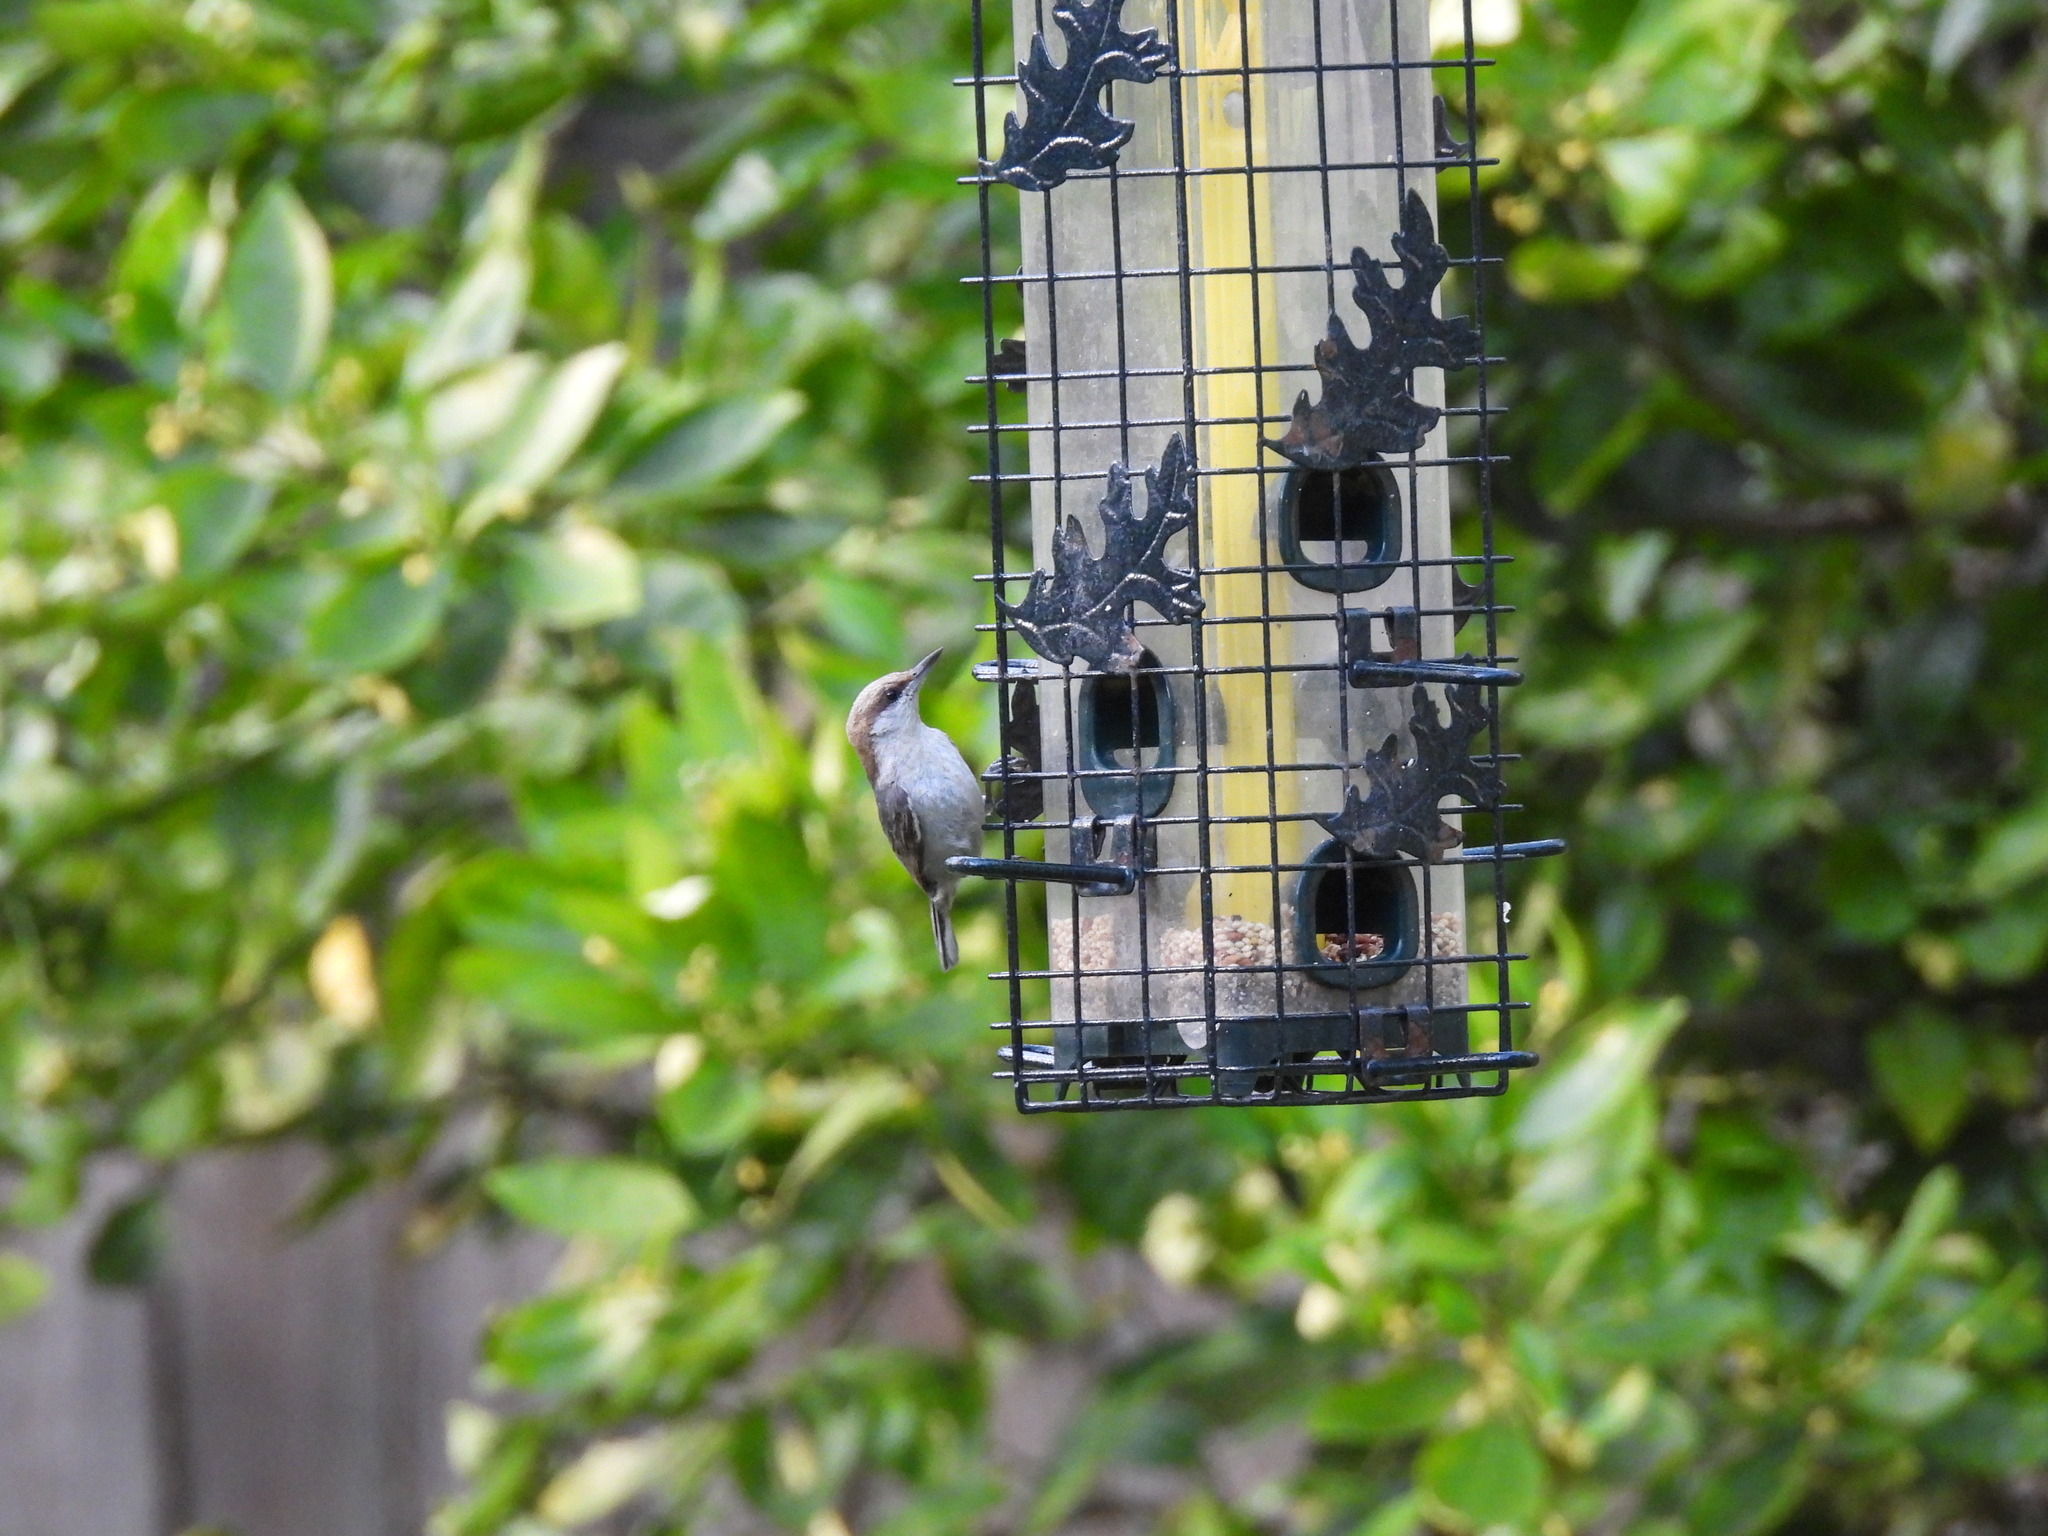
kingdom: Animalia
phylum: Chordata
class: Aves
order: Passeriformes
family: Sittidae
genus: Sitta
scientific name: Sitta pusilla
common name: Brown-headed nuthatch
